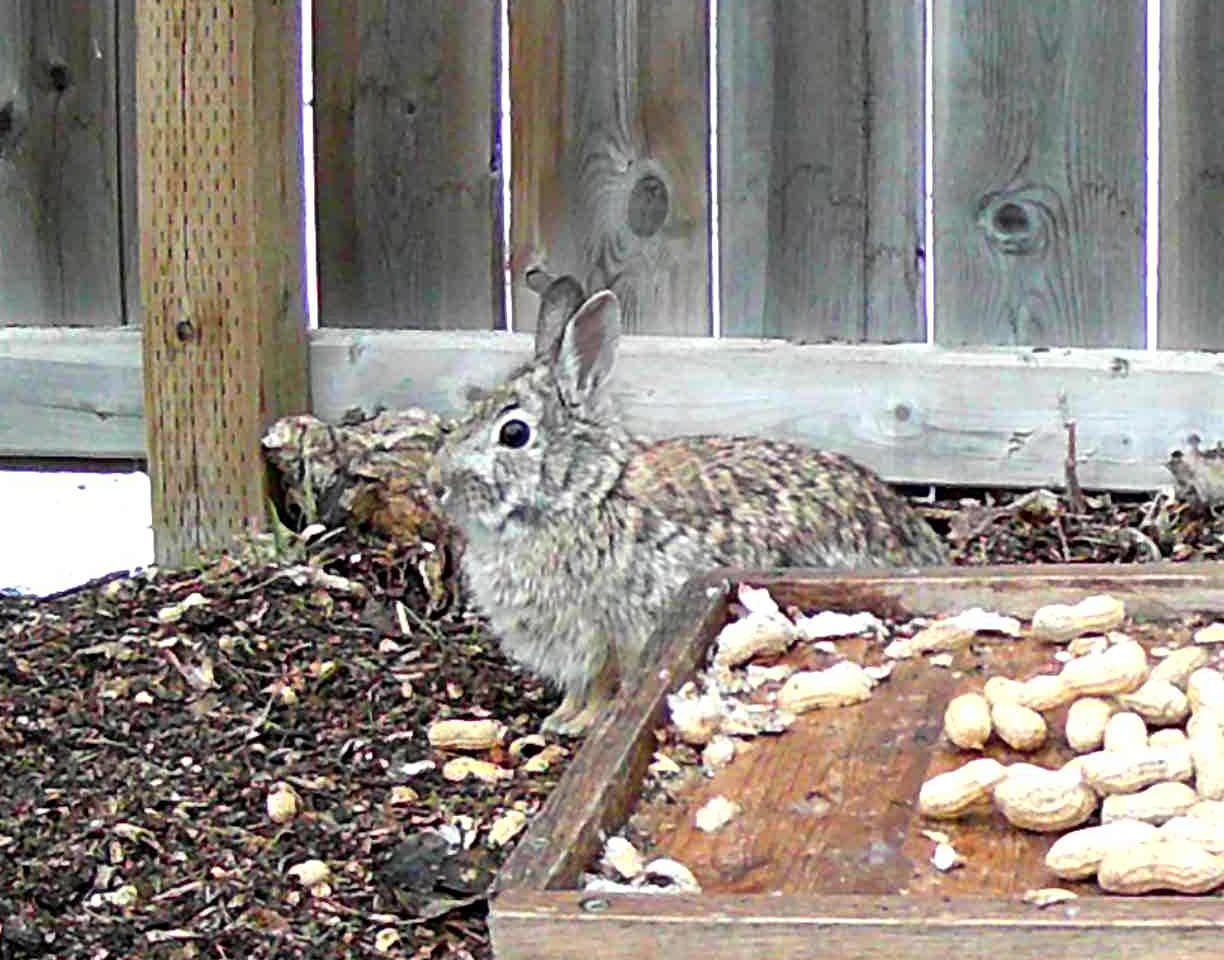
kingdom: Animalia
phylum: Chordata
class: Mammalia
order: Lagomorpha
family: Leporidae
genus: Sylvilagus
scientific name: Sylvilagus floridanus
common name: Eastern cottontail
